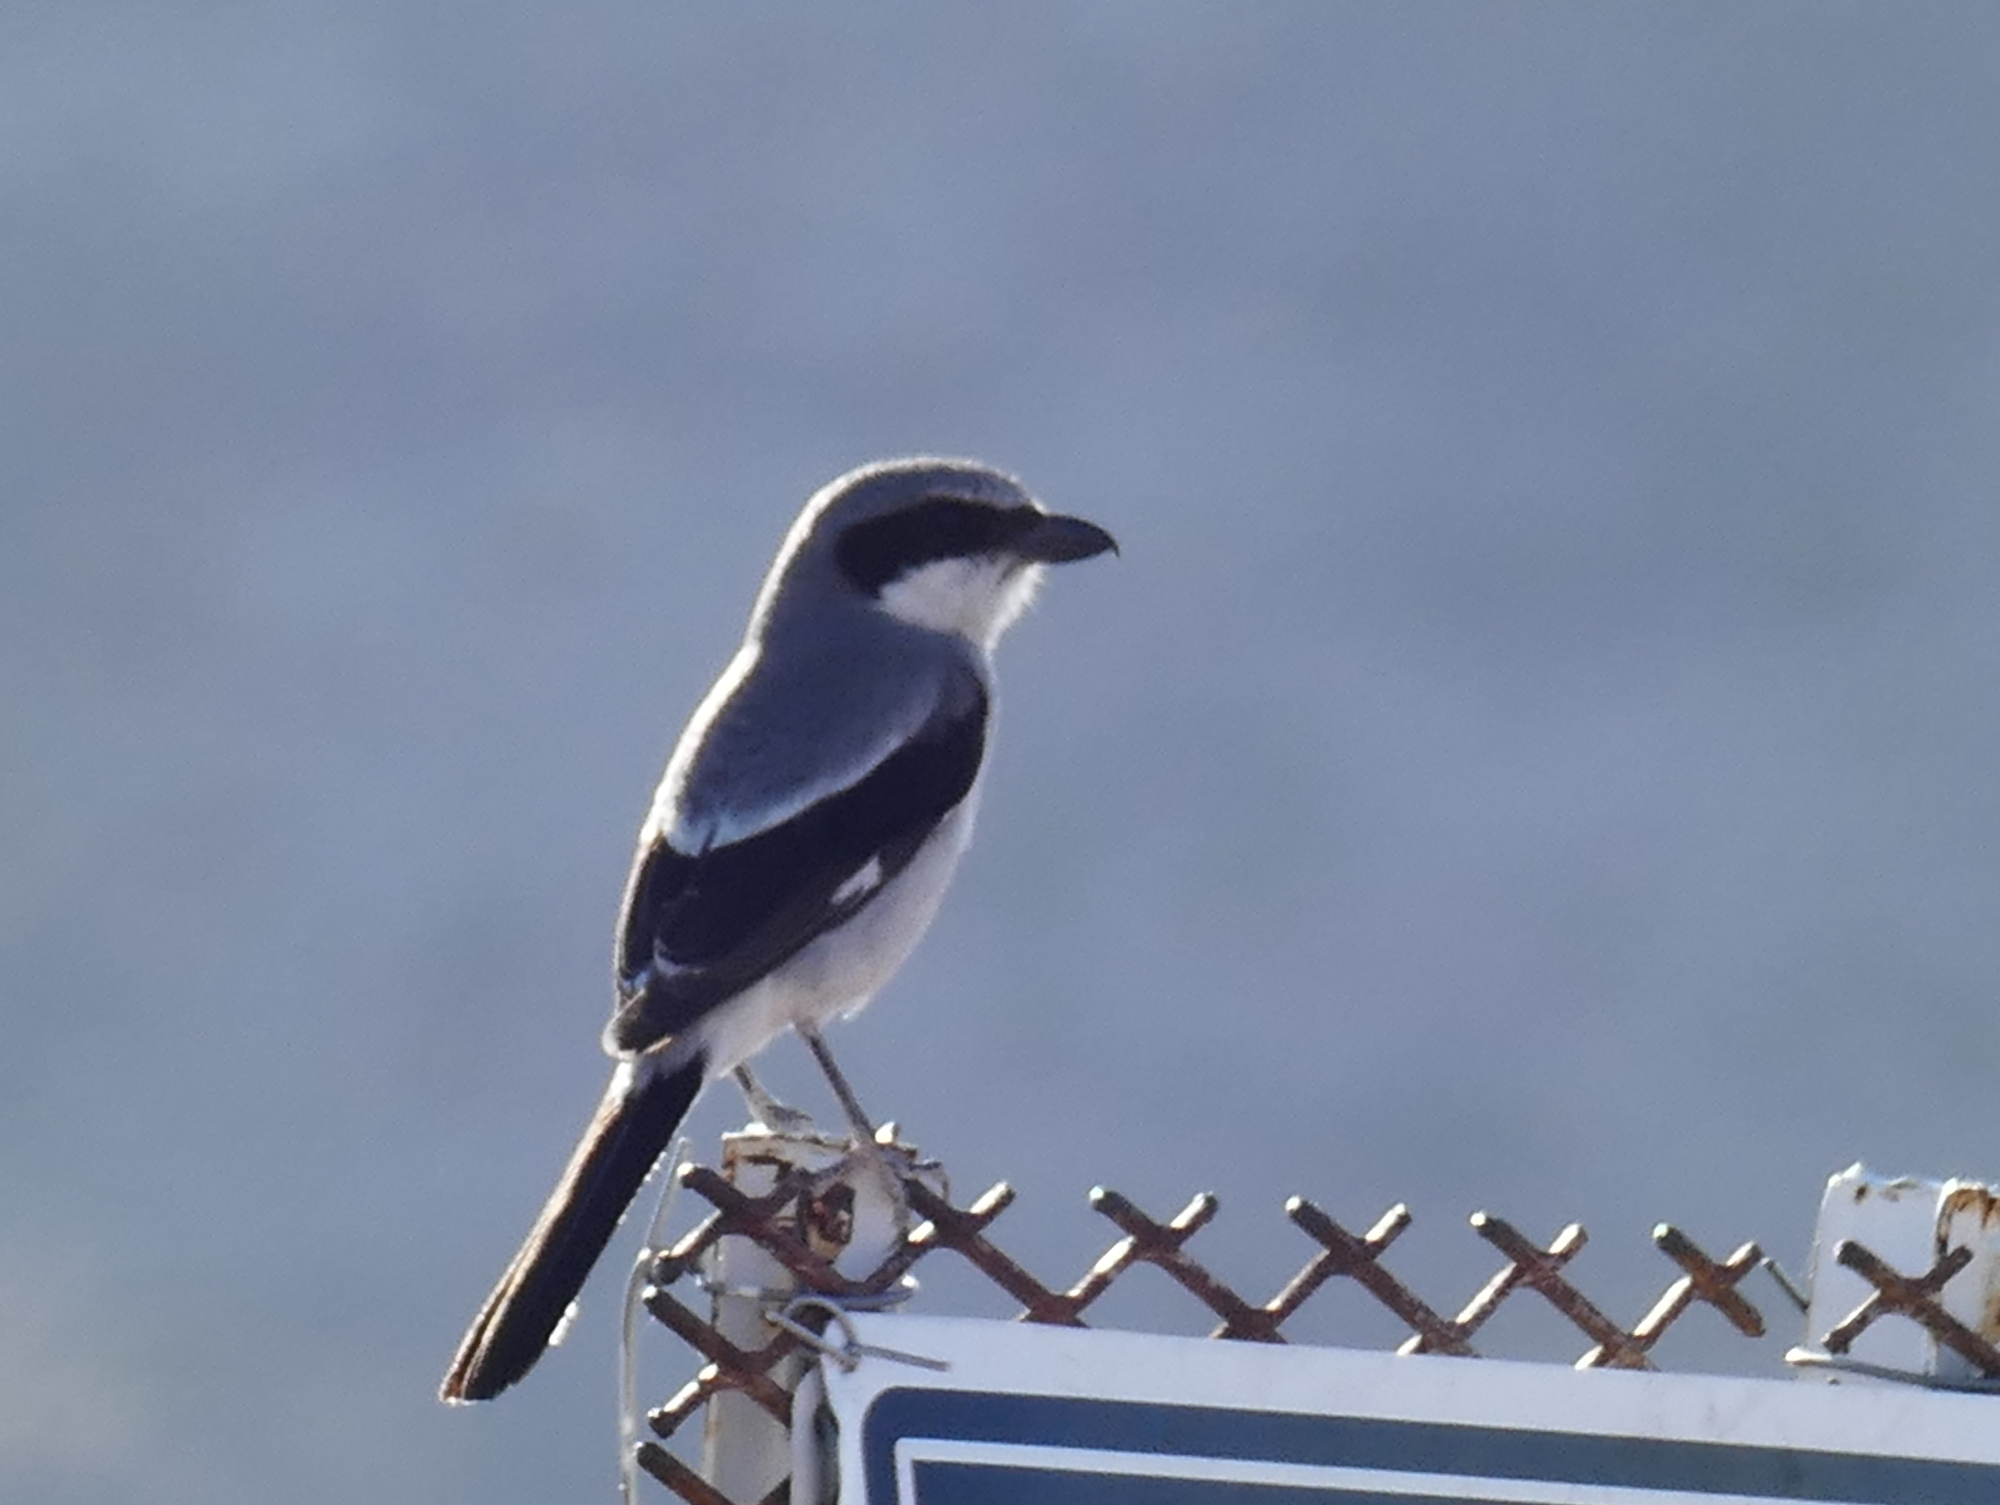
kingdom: Animalia
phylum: Chordata
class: Aves
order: Passeriformes
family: Laniidae
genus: Lanius
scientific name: Lanius ludovicianus
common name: Loggerhead shrike
